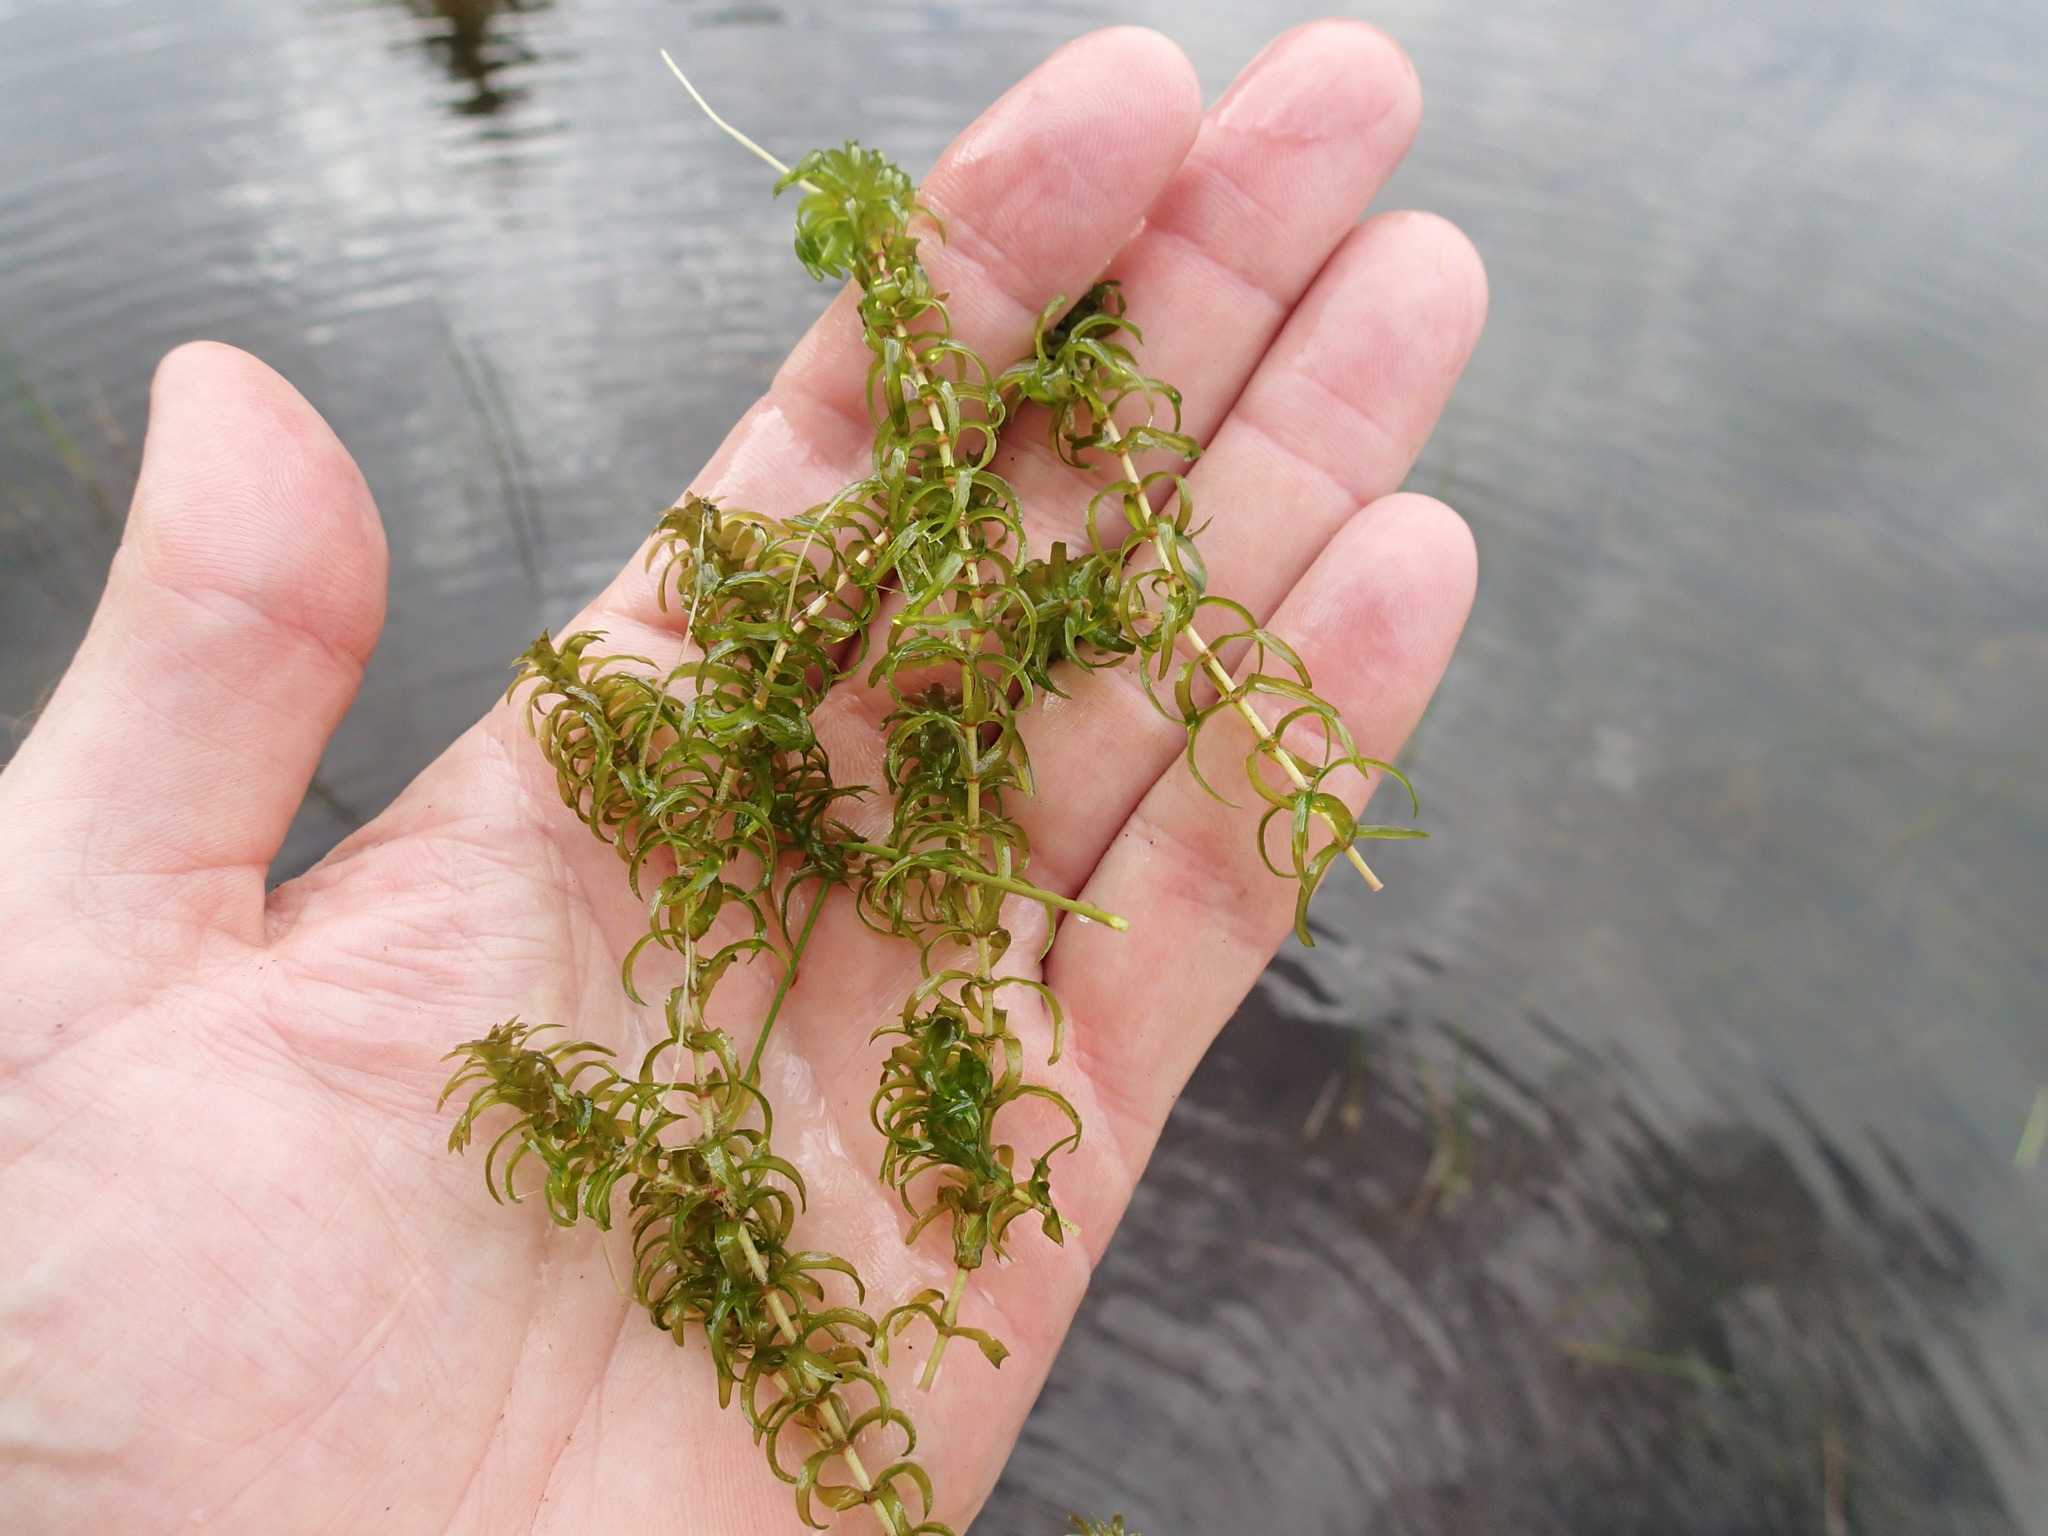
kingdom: Plantae
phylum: Tracheophyta
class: Liliopsida
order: Alismatales
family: Hydrocharitaceae
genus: Elodea
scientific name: Elodea canadensis
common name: Canadian waterweed
